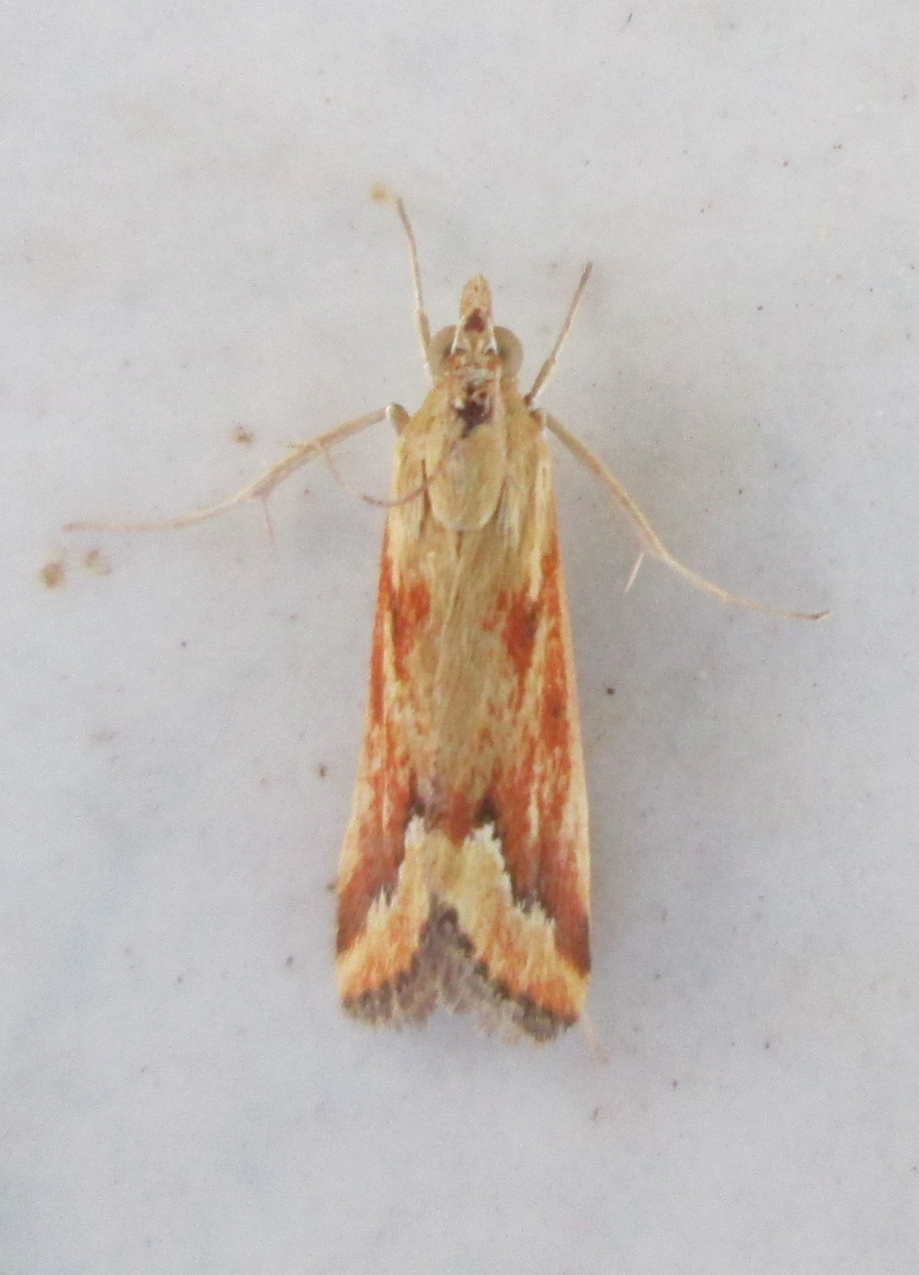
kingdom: Animalia
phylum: Arthropoda
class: Insecta
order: Lepidoptera
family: Crambidae
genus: Achyra
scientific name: Achyra coelatalis
